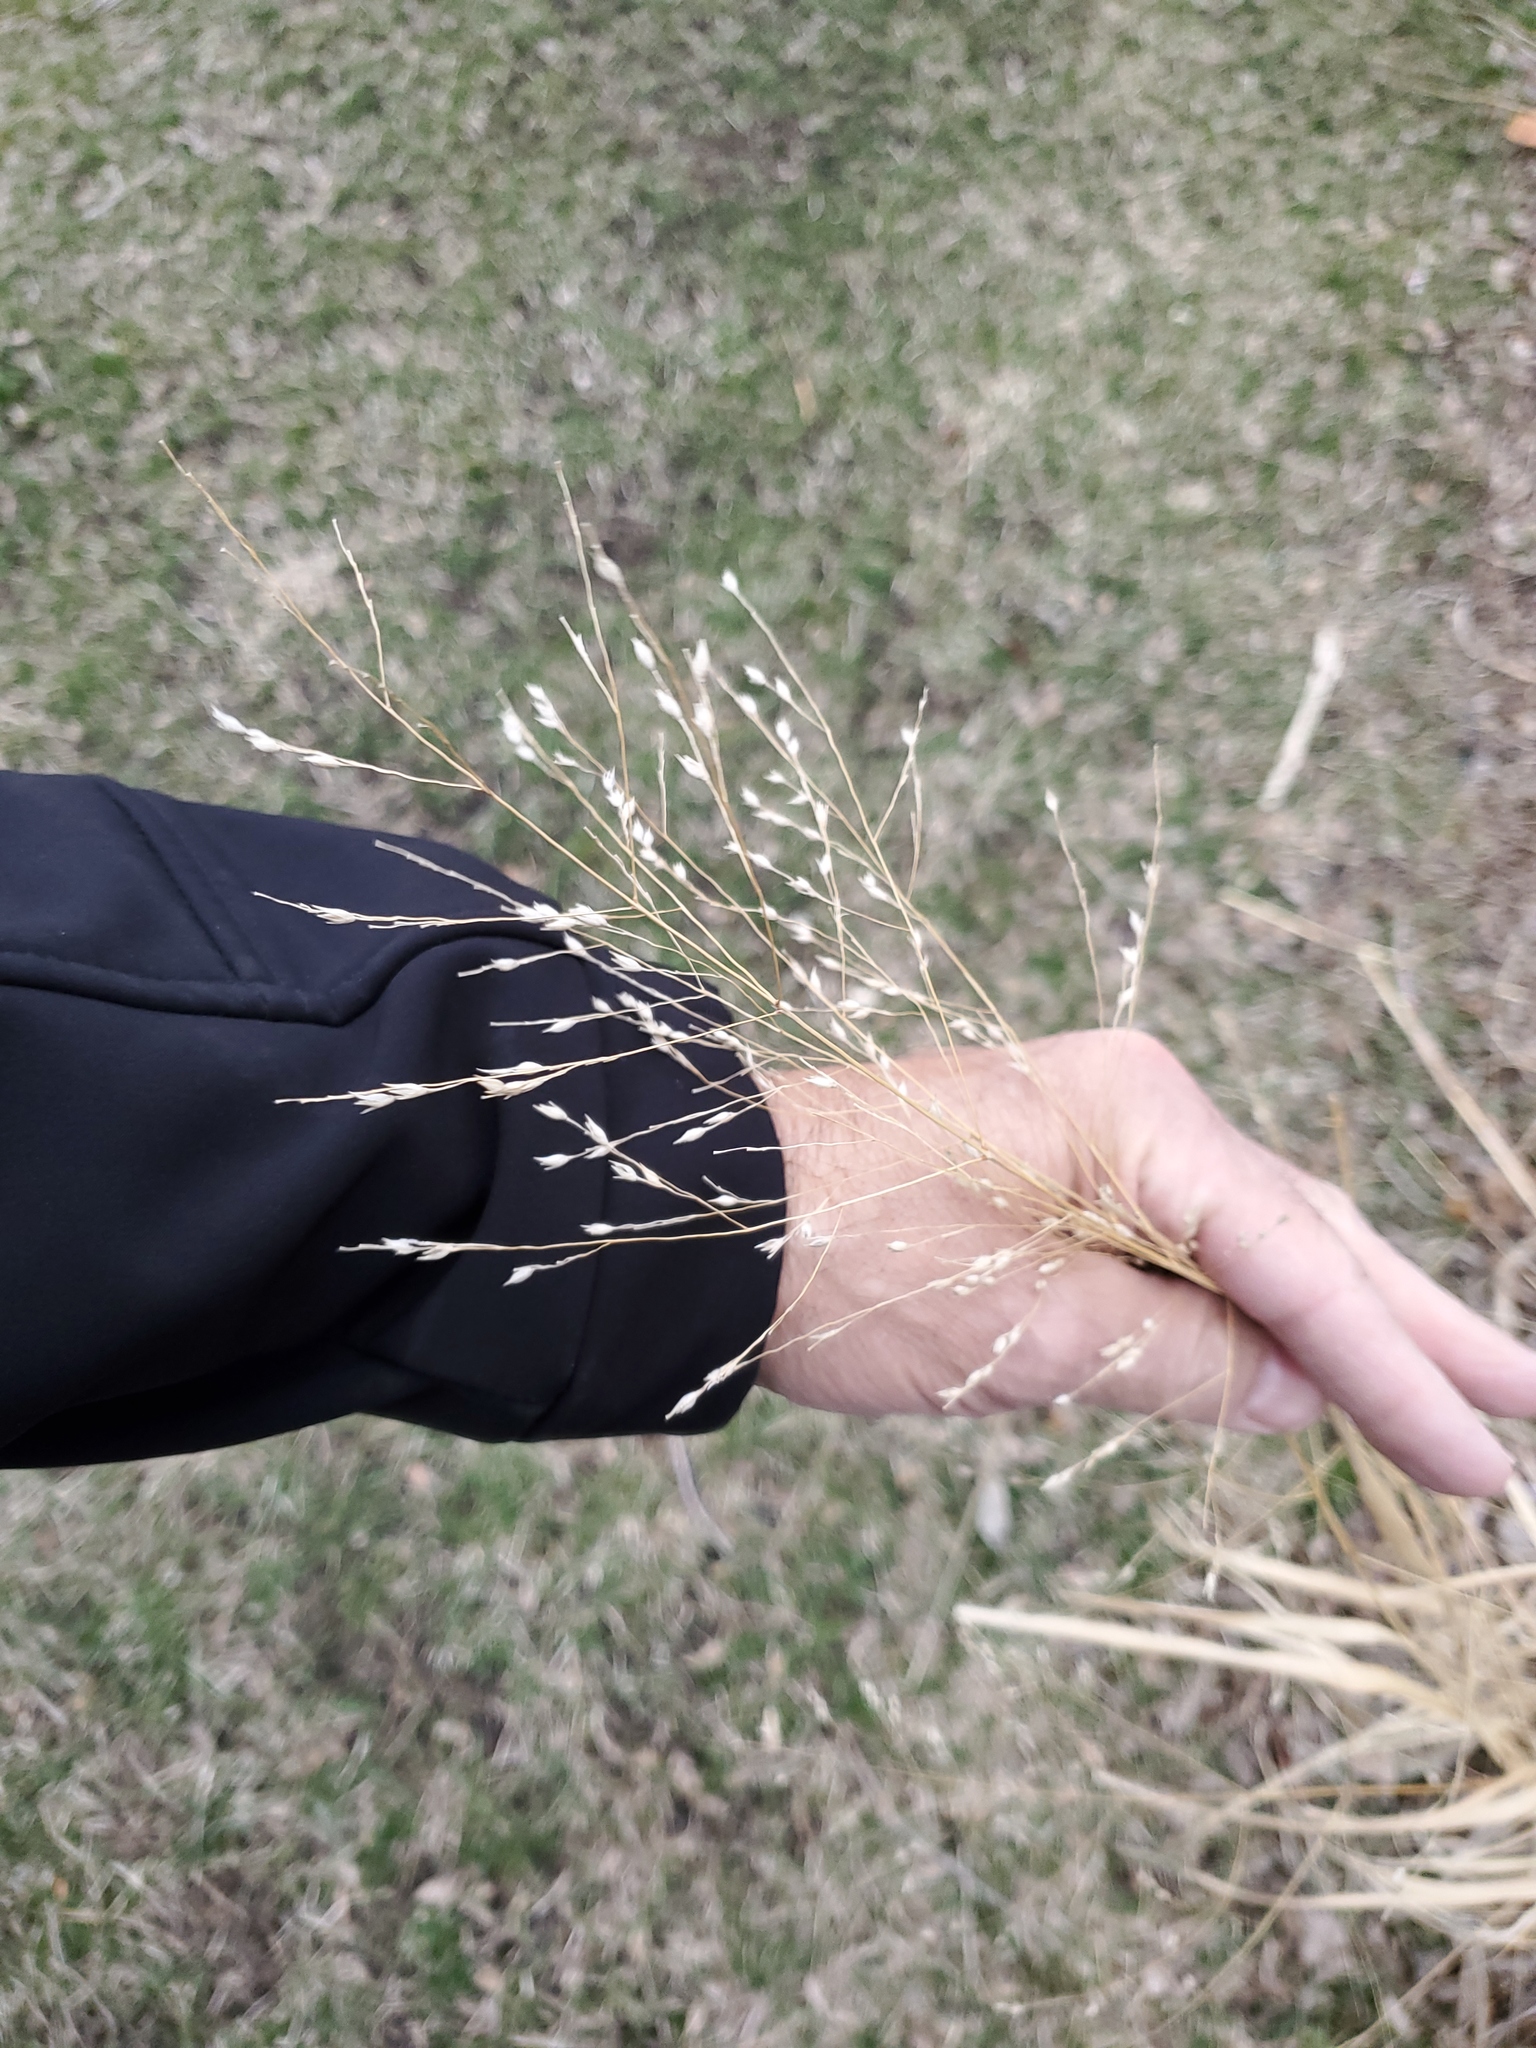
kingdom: Plantae
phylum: Tracheophyta
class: Liliopsida
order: Poales
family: Poaceae
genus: Panicum
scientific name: Panicum virgatum
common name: Switchgrass
